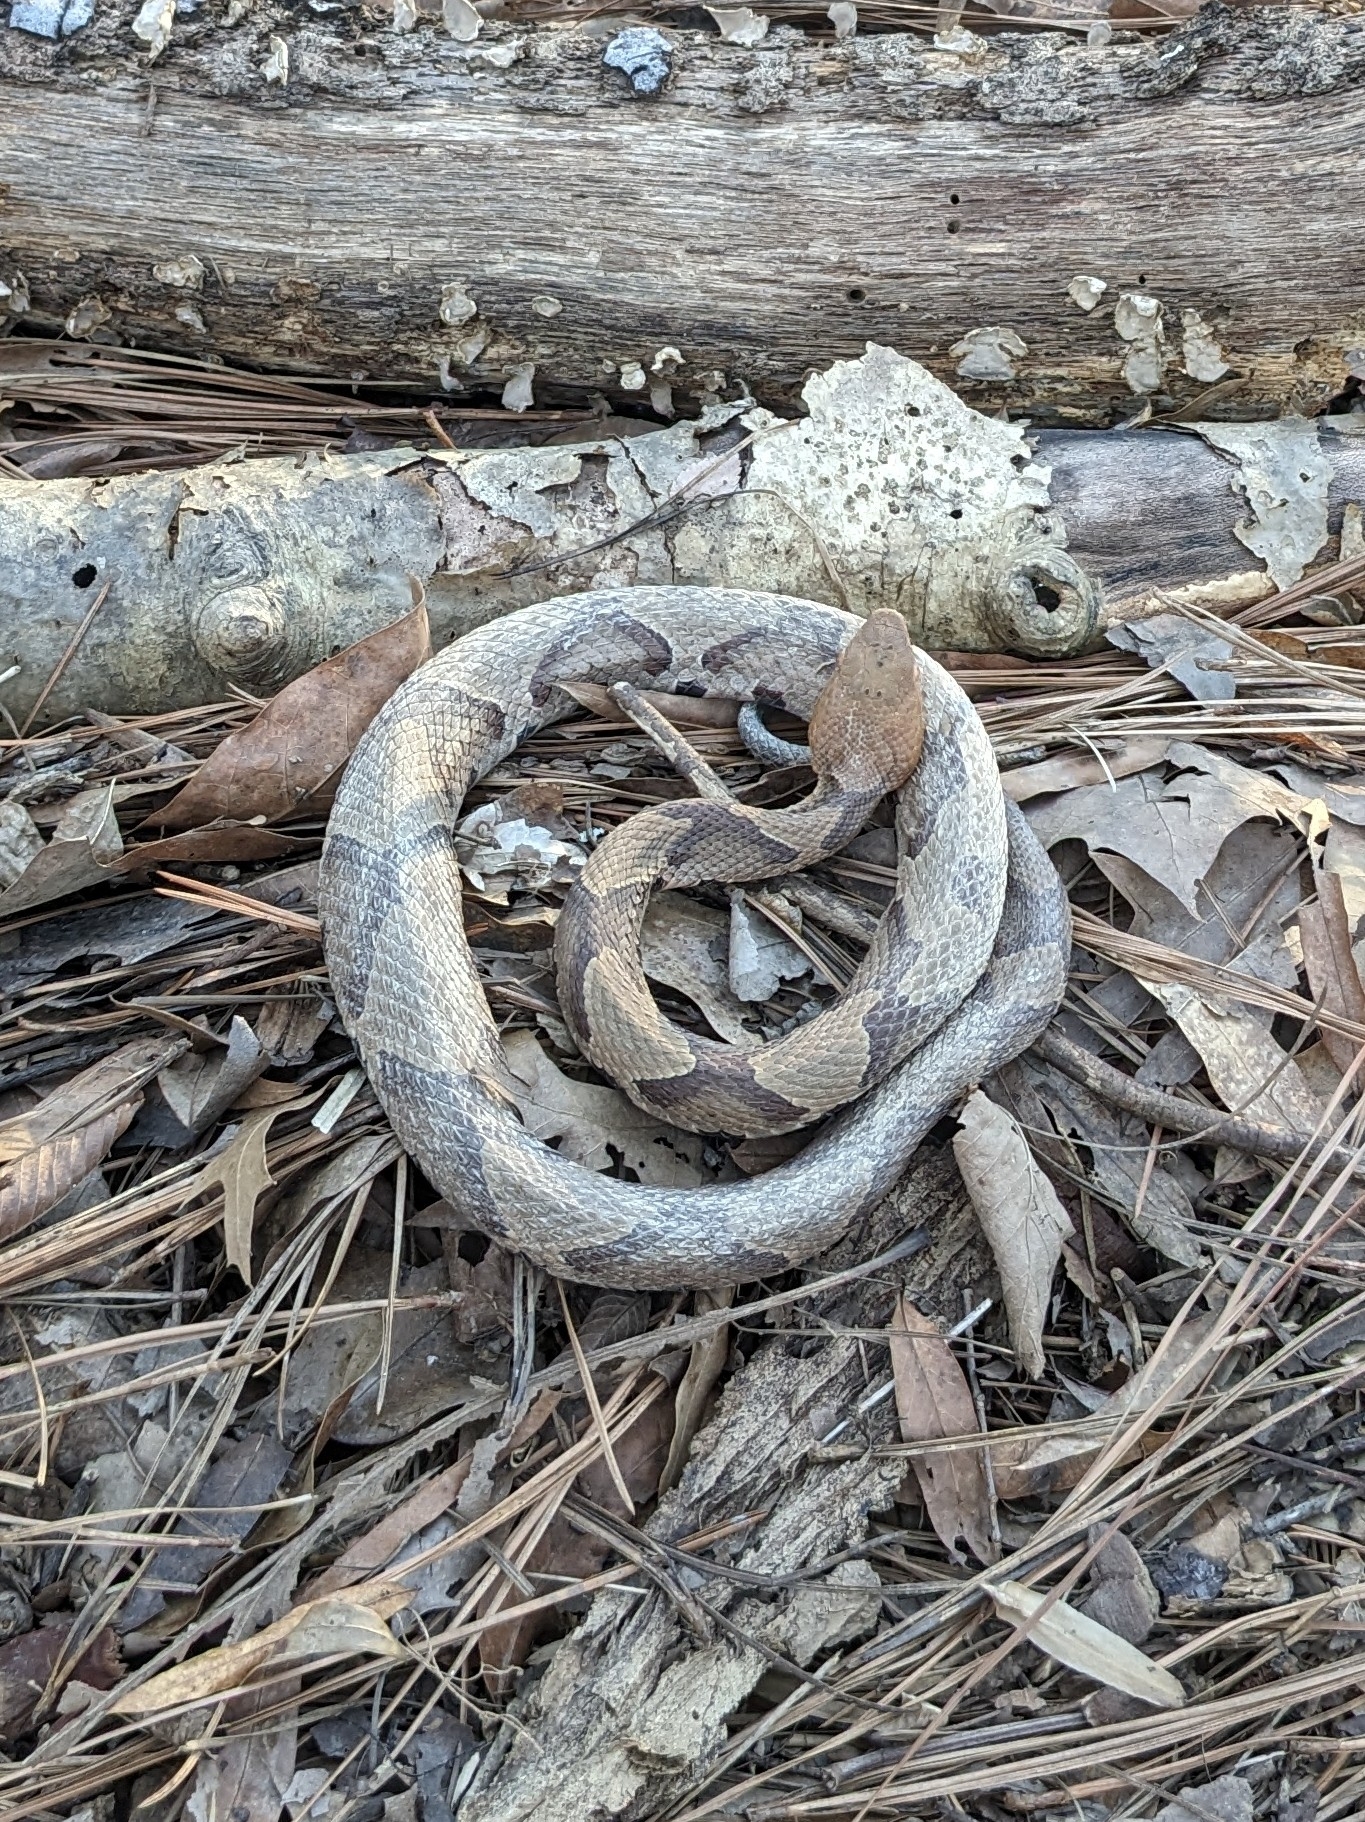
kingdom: Animalia
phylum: Chordata
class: Squamata
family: Viperidae
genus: Agkistrodon
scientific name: Agkistrodon contortrix
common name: Northern copperhead
